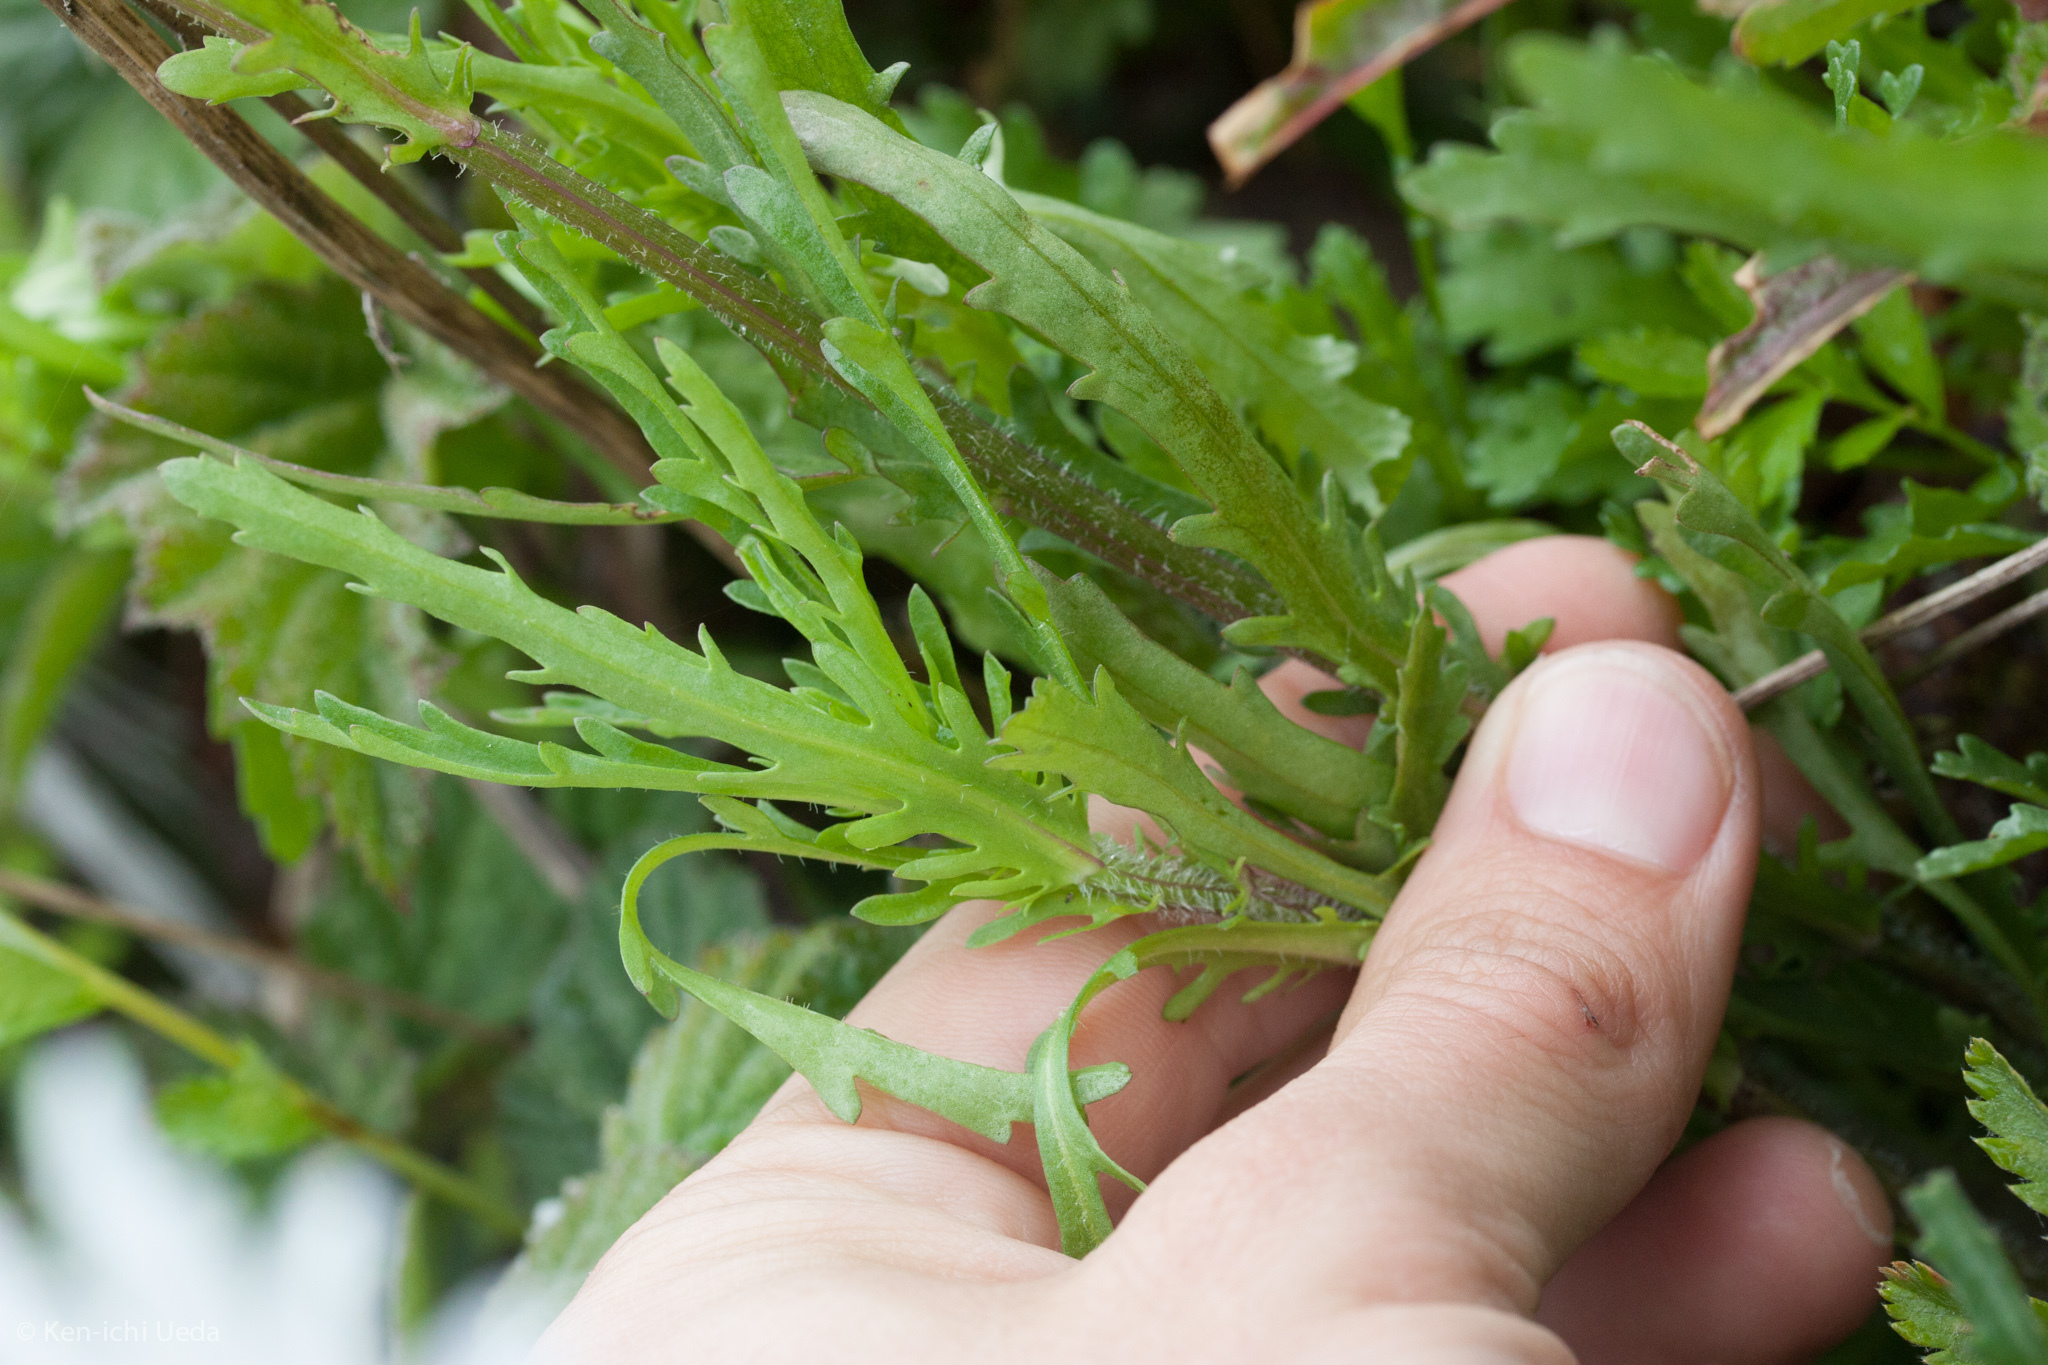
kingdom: Plantae
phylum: Tracheophyta
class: Magnoliopsida
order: Asterales
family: Asteraceae
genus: Leucanthemum
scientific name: Leucanthemum vulgare
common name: Oxeye daisy
